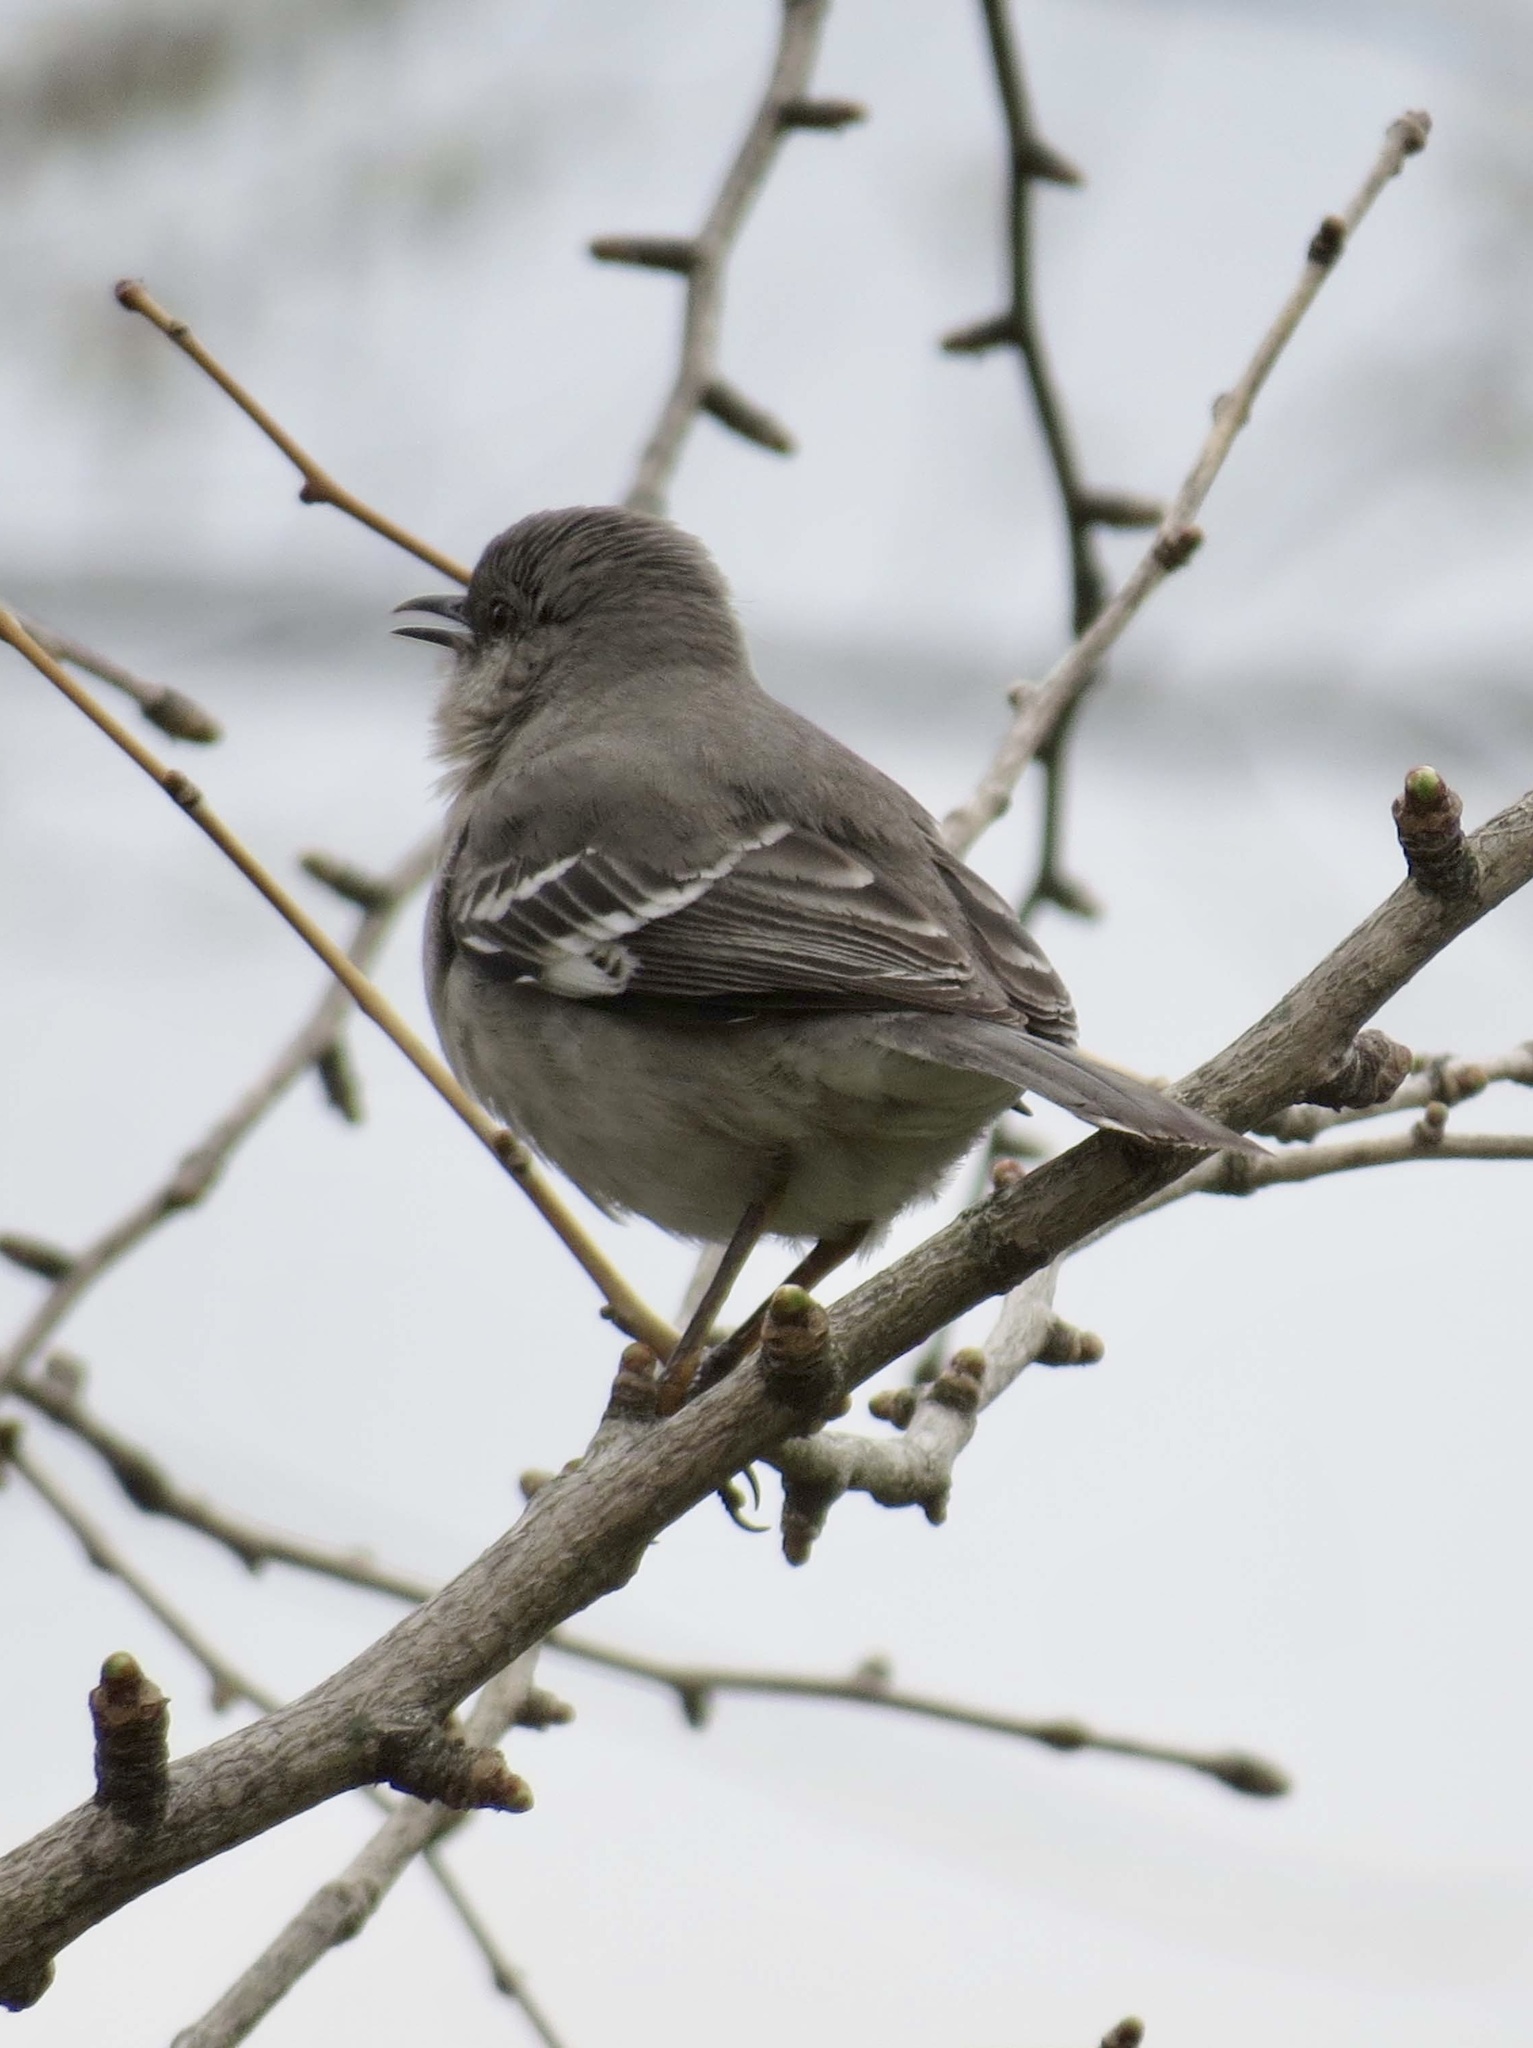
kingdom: Animalia
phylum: Chordata
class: Aves
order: Passeriformes
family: Mimidae
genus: Mimus
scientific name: Mimus polyglottos
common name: Northern mockingbird
